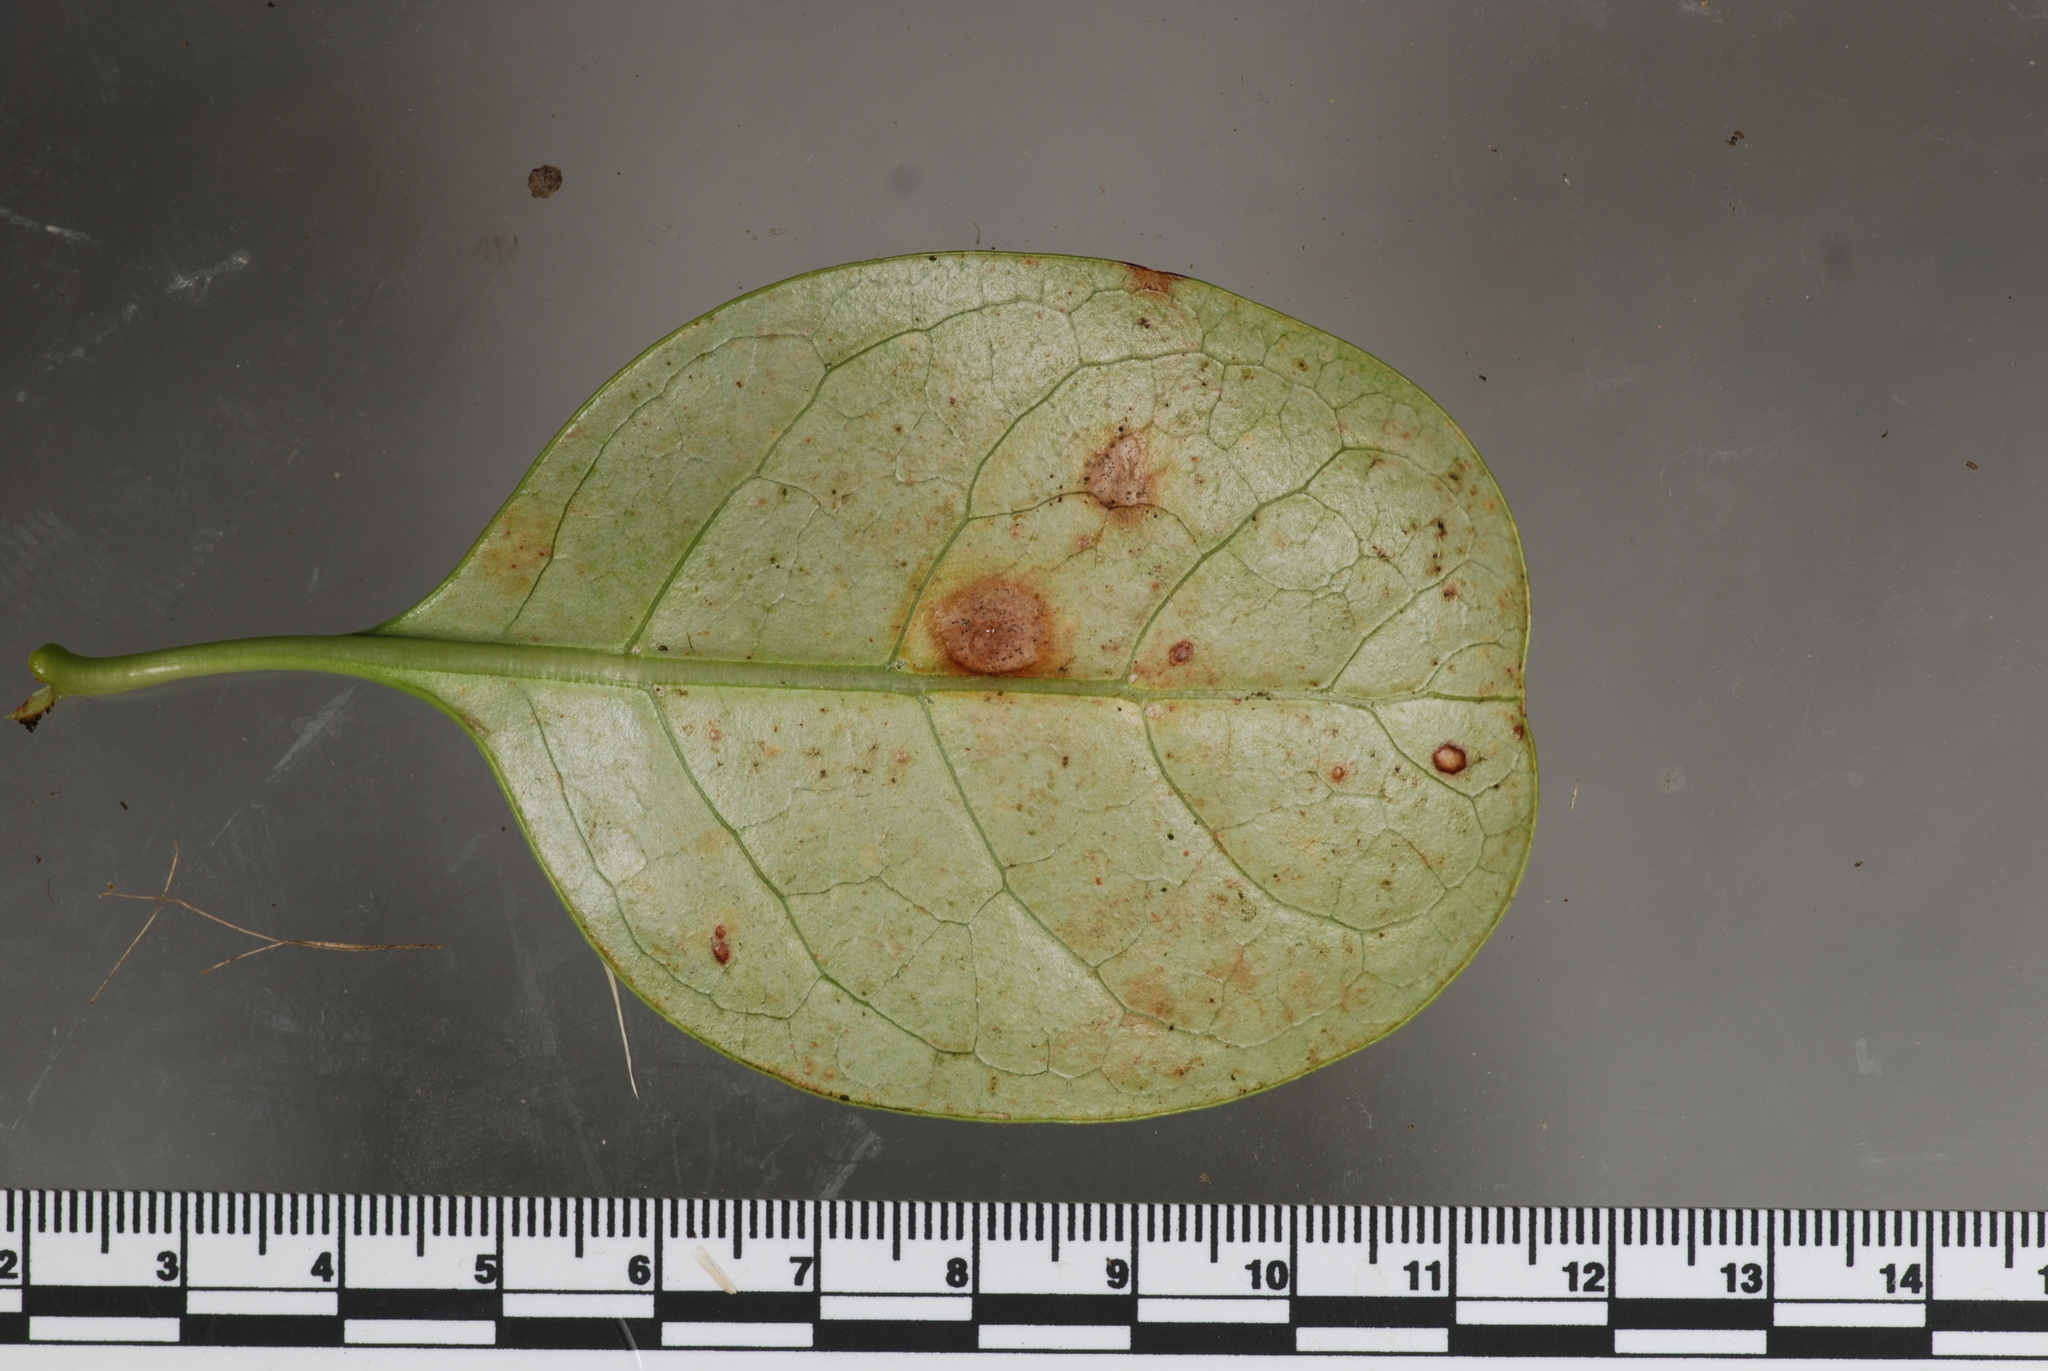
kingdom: Fungi
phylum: Ascomycota
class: Dothideomycetes
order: Mycosphaerellales
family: Mycosphaerellaceae
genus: Pseudophaeophleospora
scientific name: Pseudophaeophleospora atkinsonii
